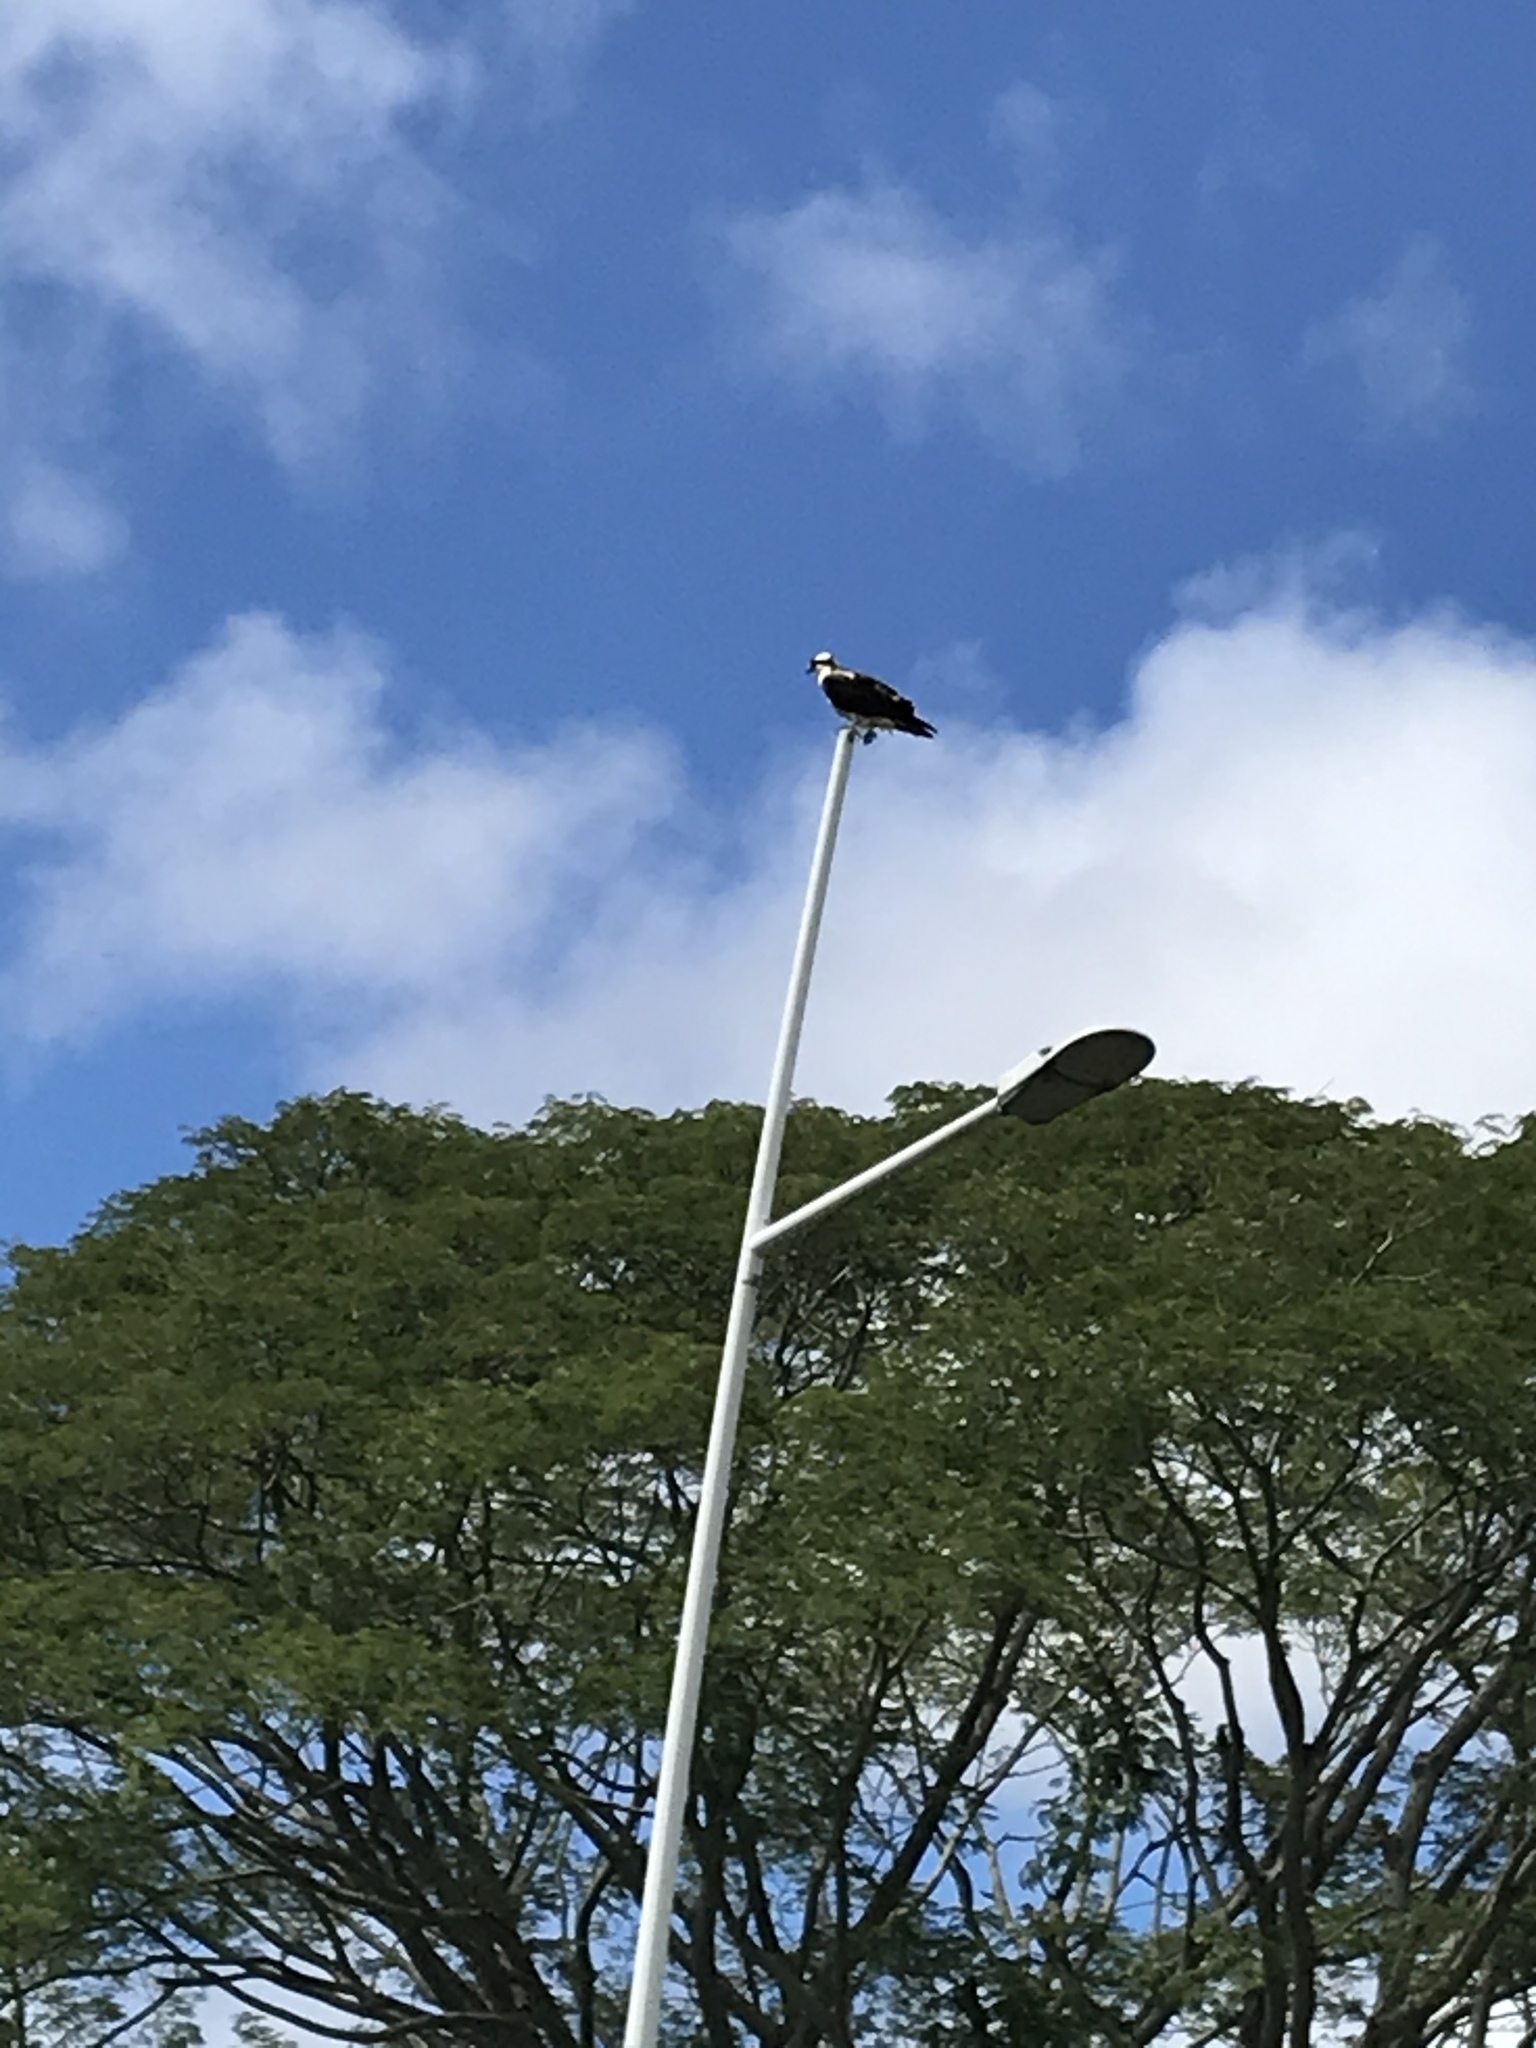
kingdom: Animalia
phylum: Chordata
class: Aves
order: Accipitriformes
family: Pandionidae
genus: Pandion
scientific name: Pandion haliaetus
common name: Osprey
